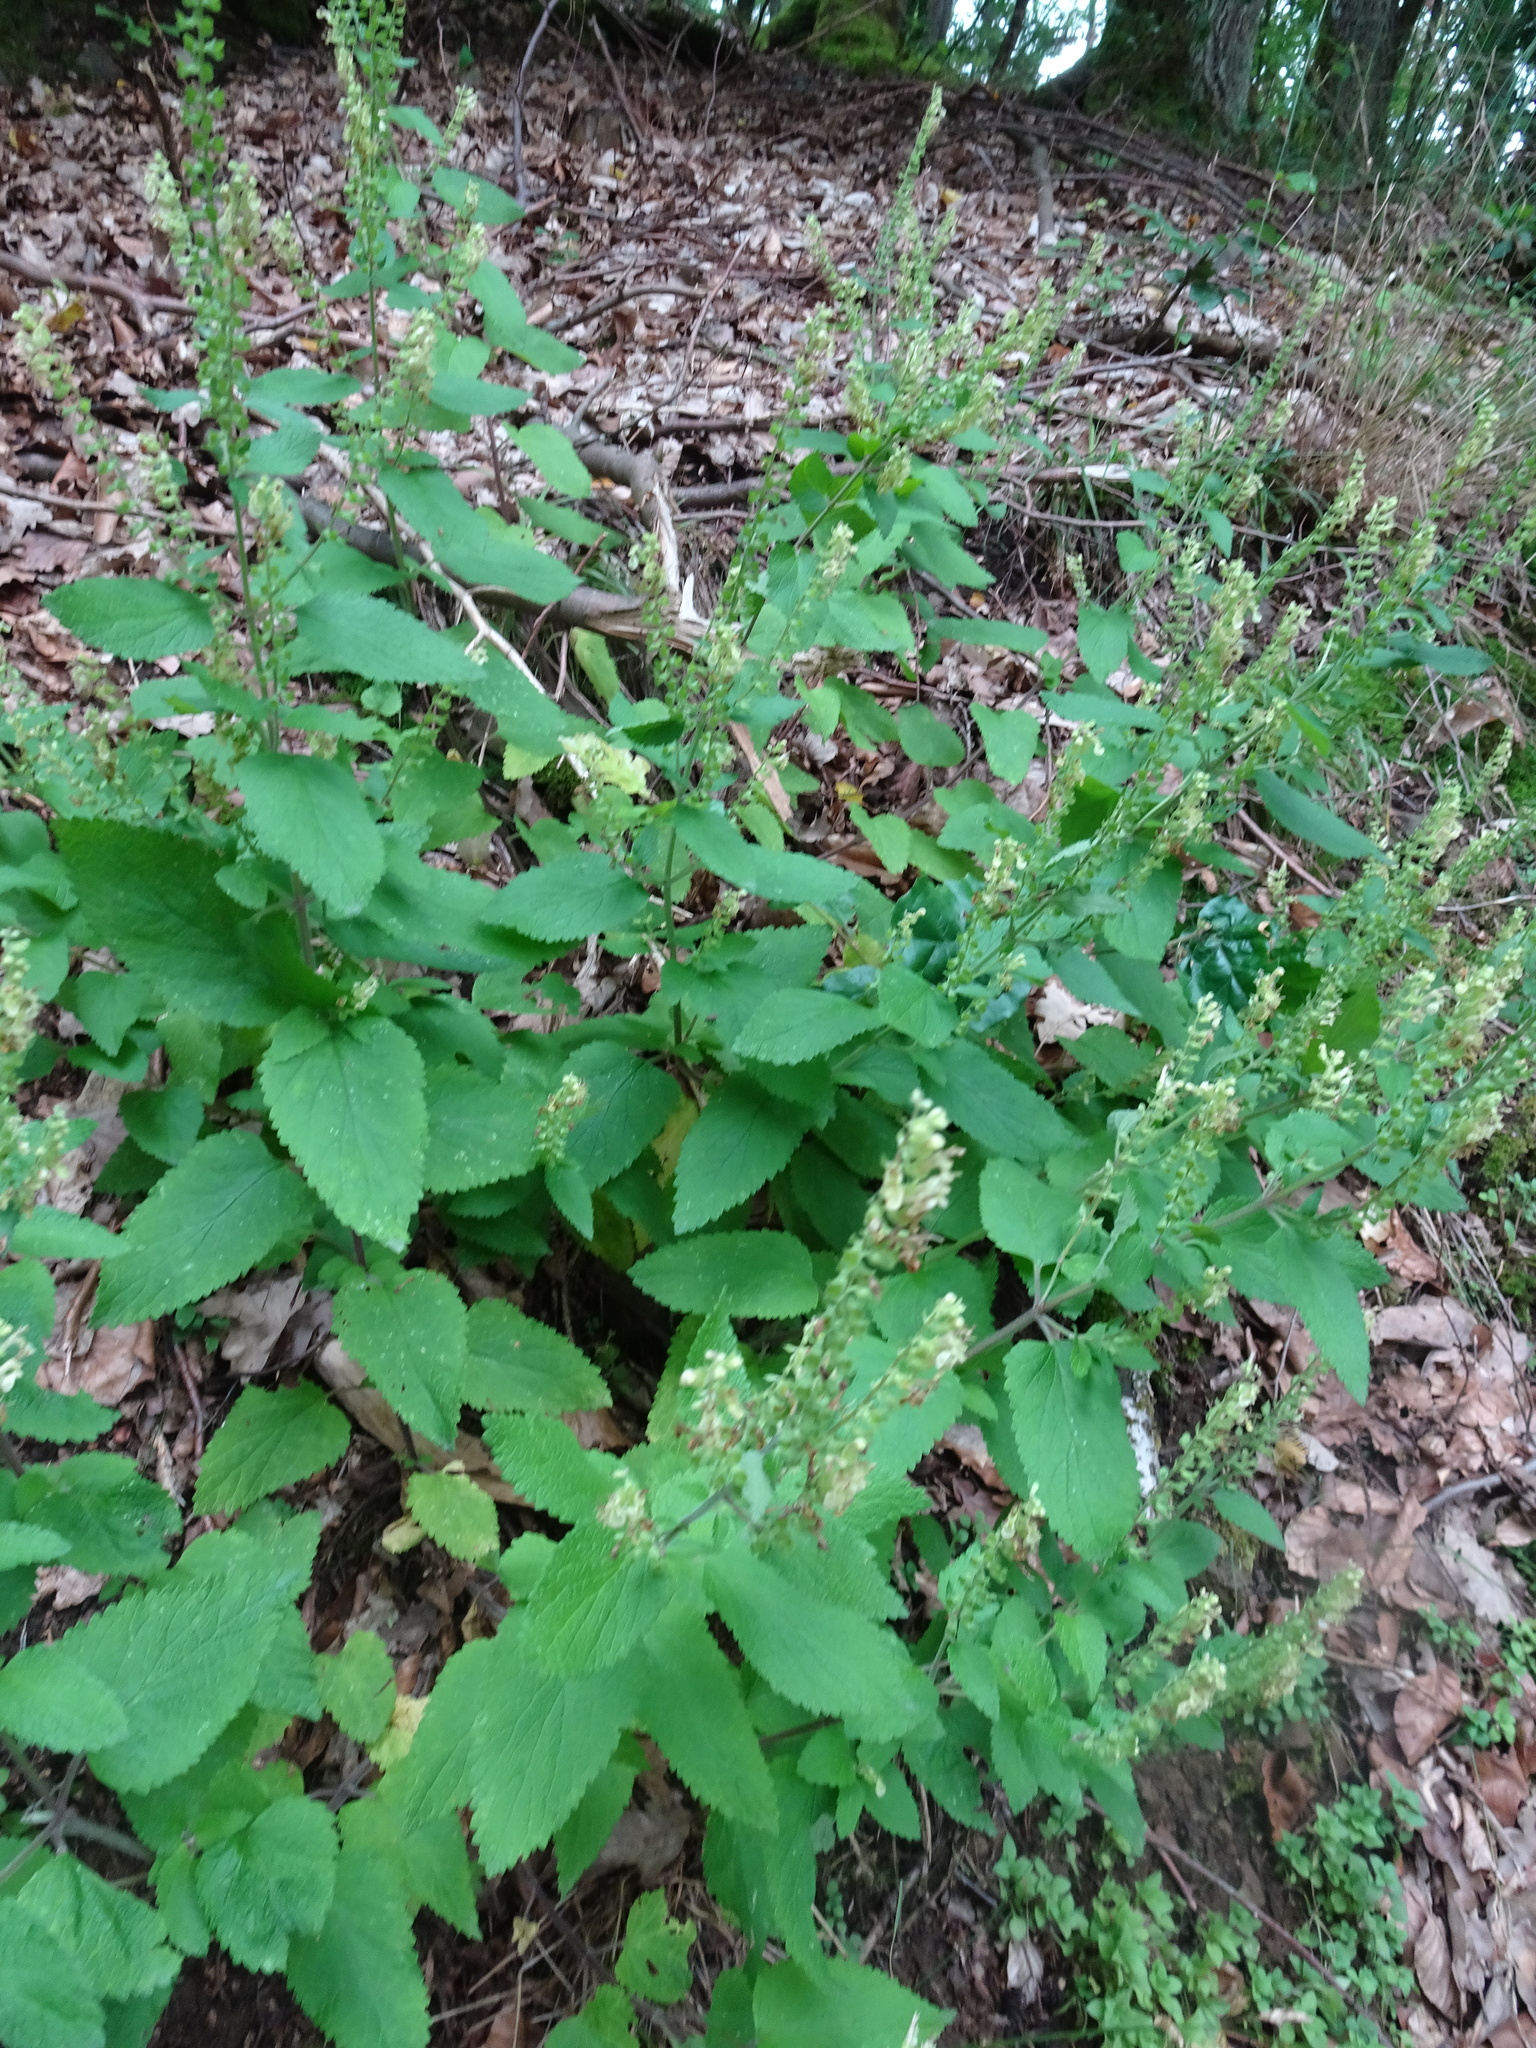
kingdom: Plantae
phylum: Tracheophyta
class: Magnoliopsida
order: Lamiales
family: Lamiaceae
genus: Teucrium
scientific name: Teucrium scorodonia
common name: Woodland germander
